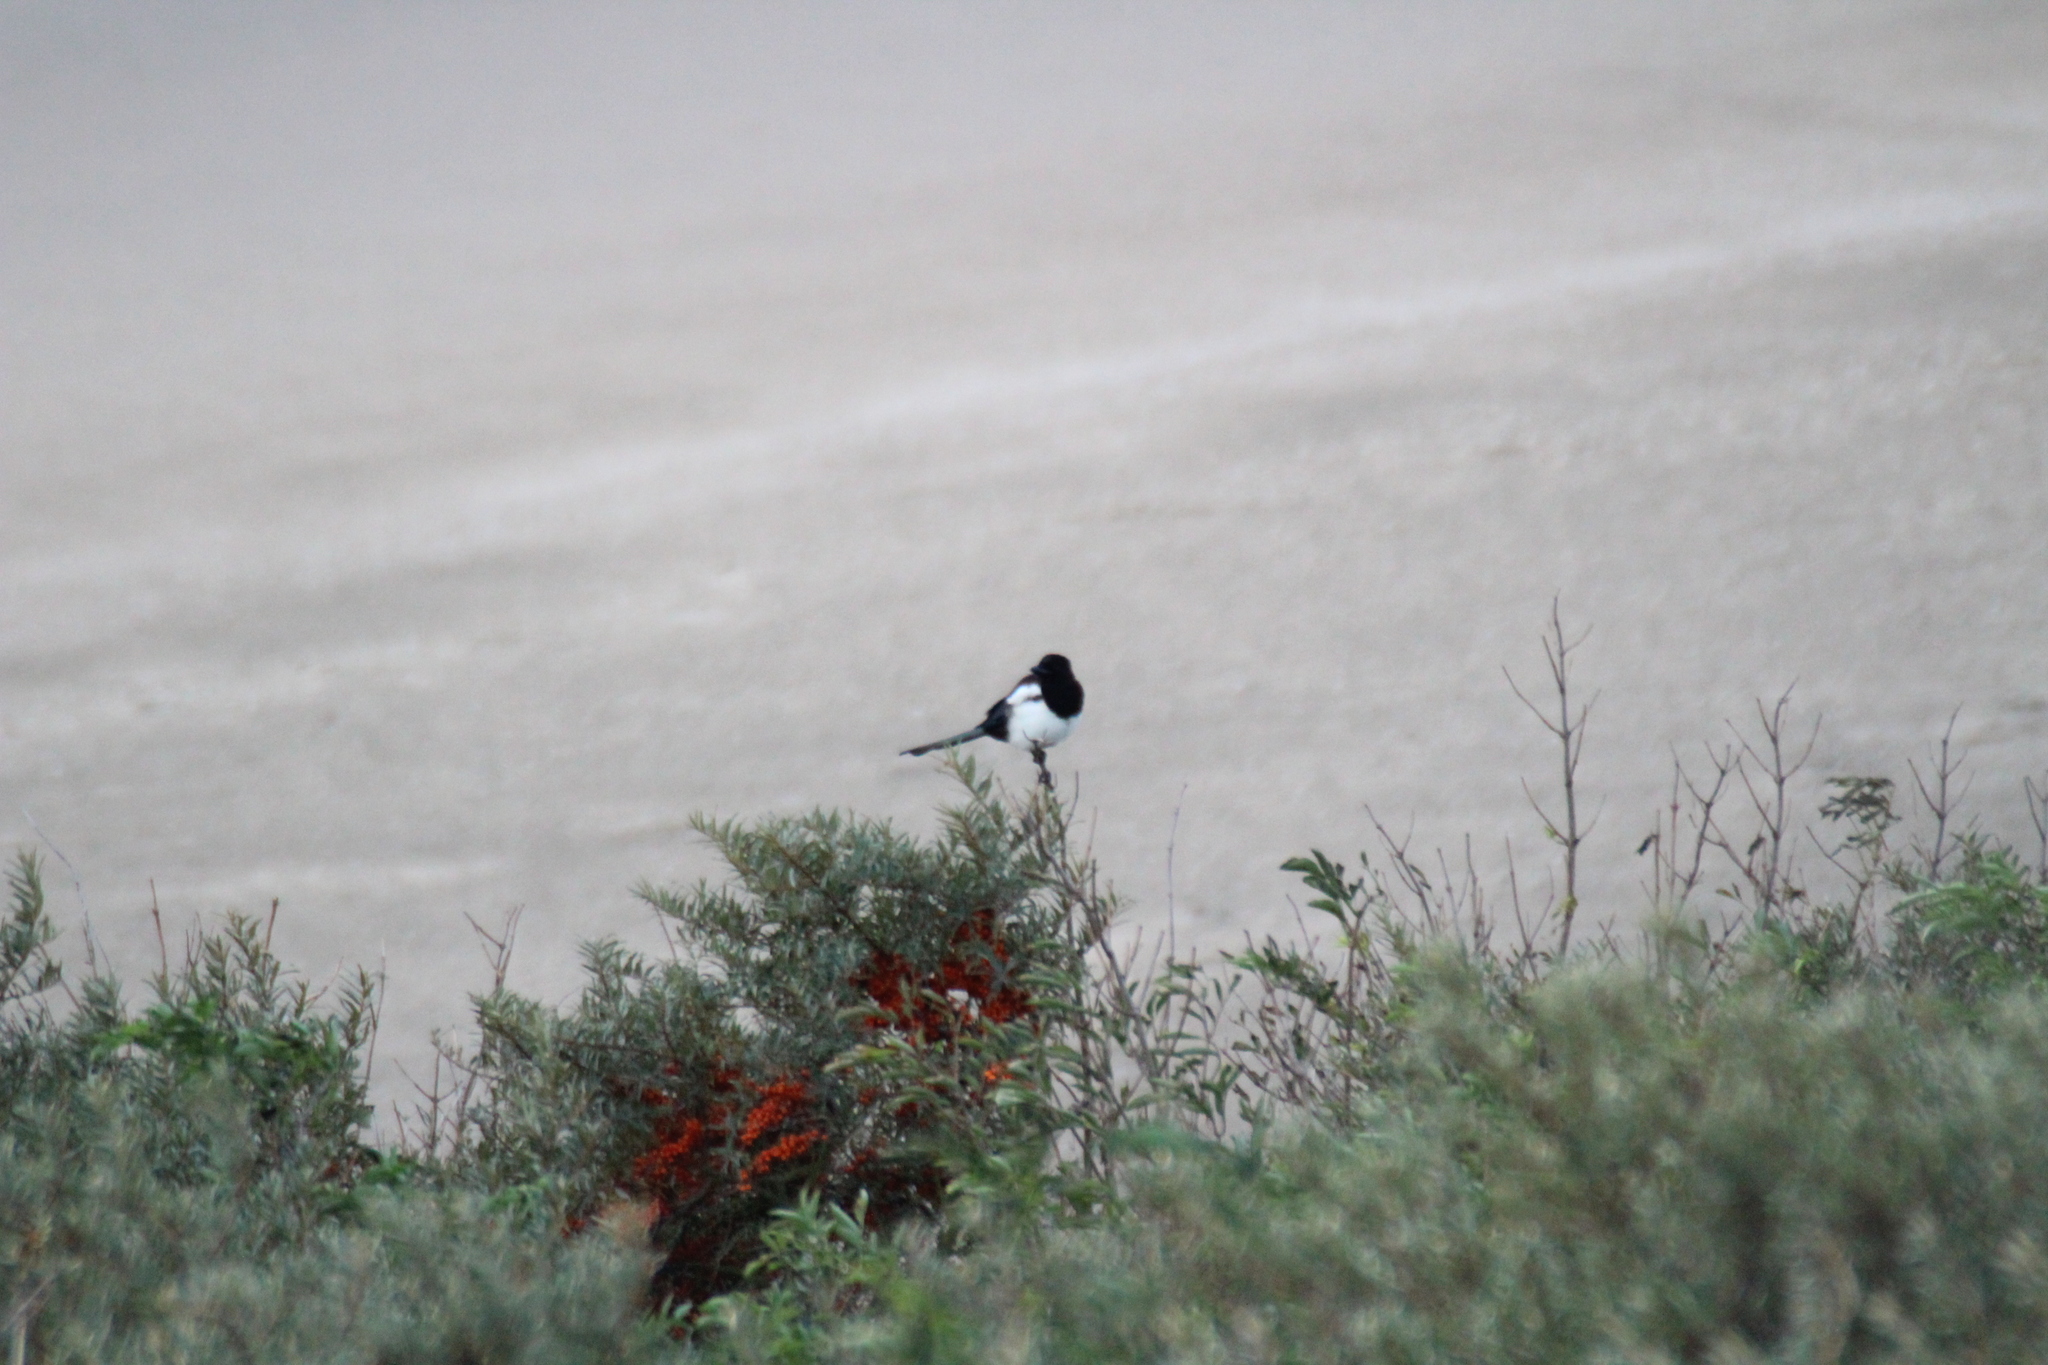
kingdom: Animalia
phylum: Chordata
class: Aves
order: Passeriformes
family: Corvidae
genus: Pica
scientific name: Pica pica
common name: Eurasian magpie
